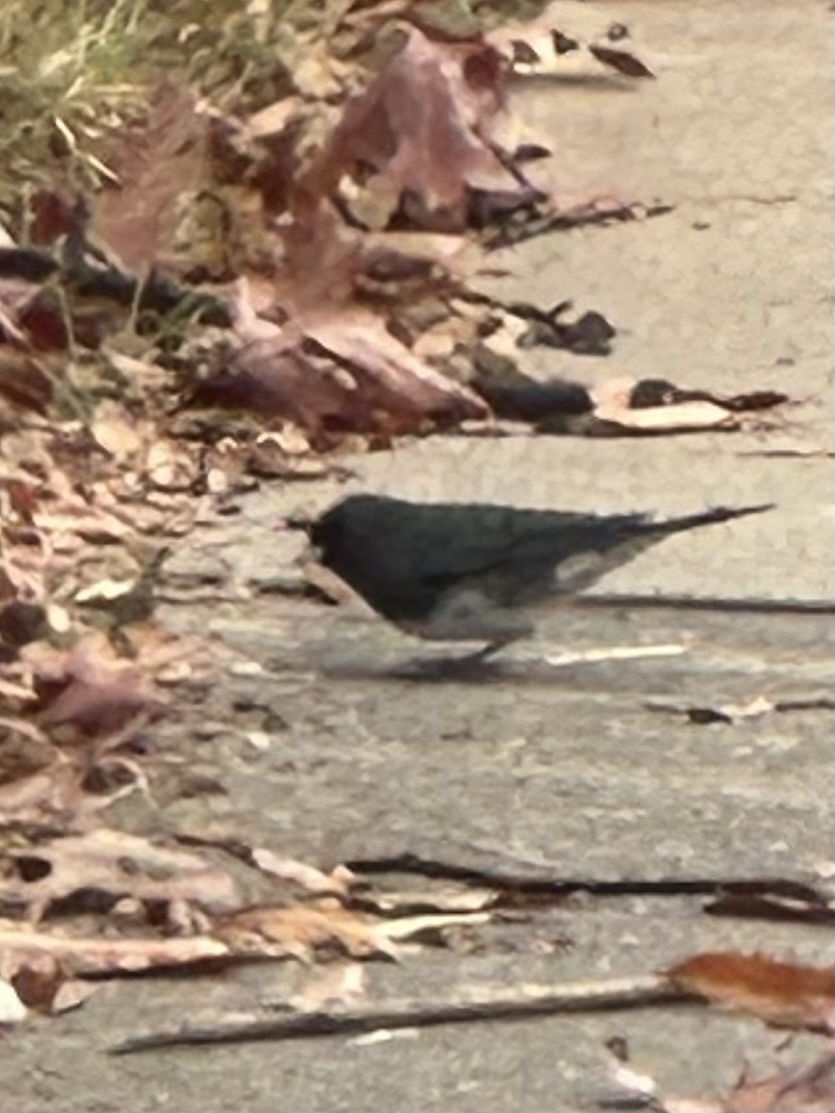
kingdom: Animalia
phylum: Chordata
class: Aves
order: Passeriformes
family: Passerellidae
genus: Junco
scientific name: Junco hyemalis
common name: Dark-eyed junco
